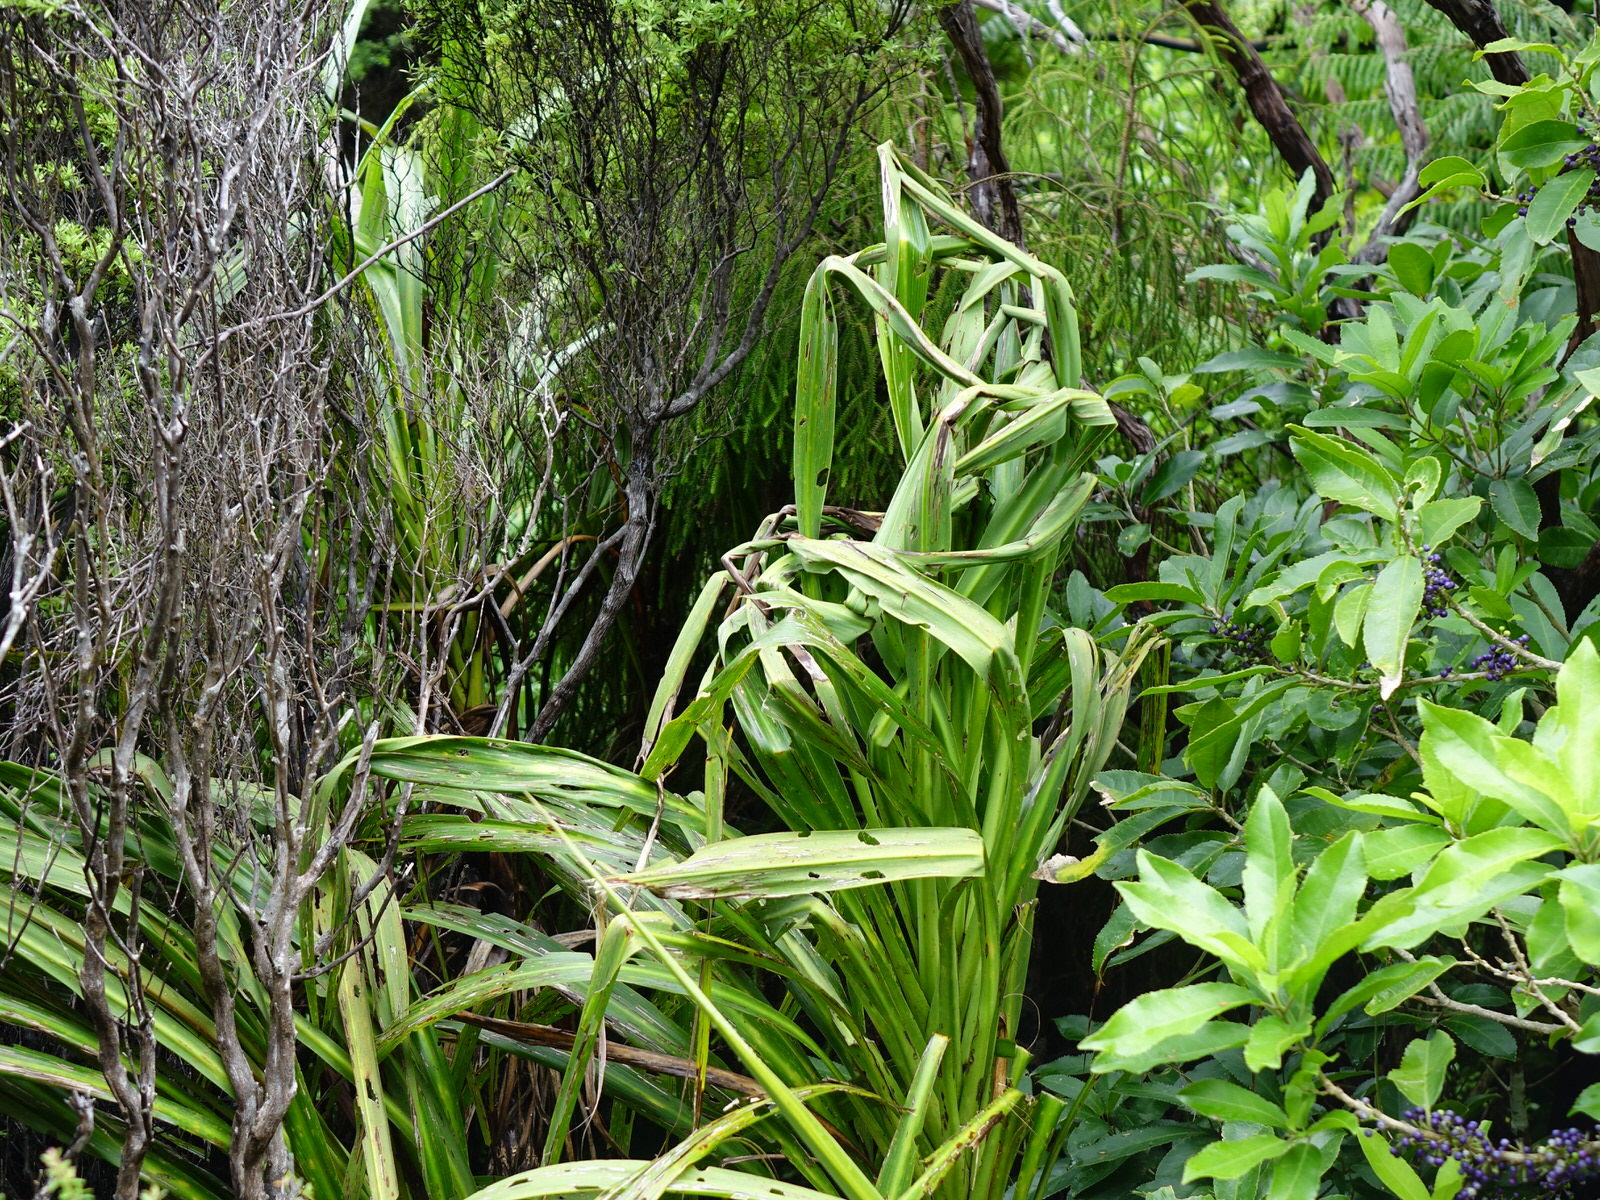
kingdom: Plantae
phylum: Tracheophyta
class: Liliopsida
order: Asparagales
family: Asparagaceae
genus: Cordyline
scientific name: Cordyline banksii
